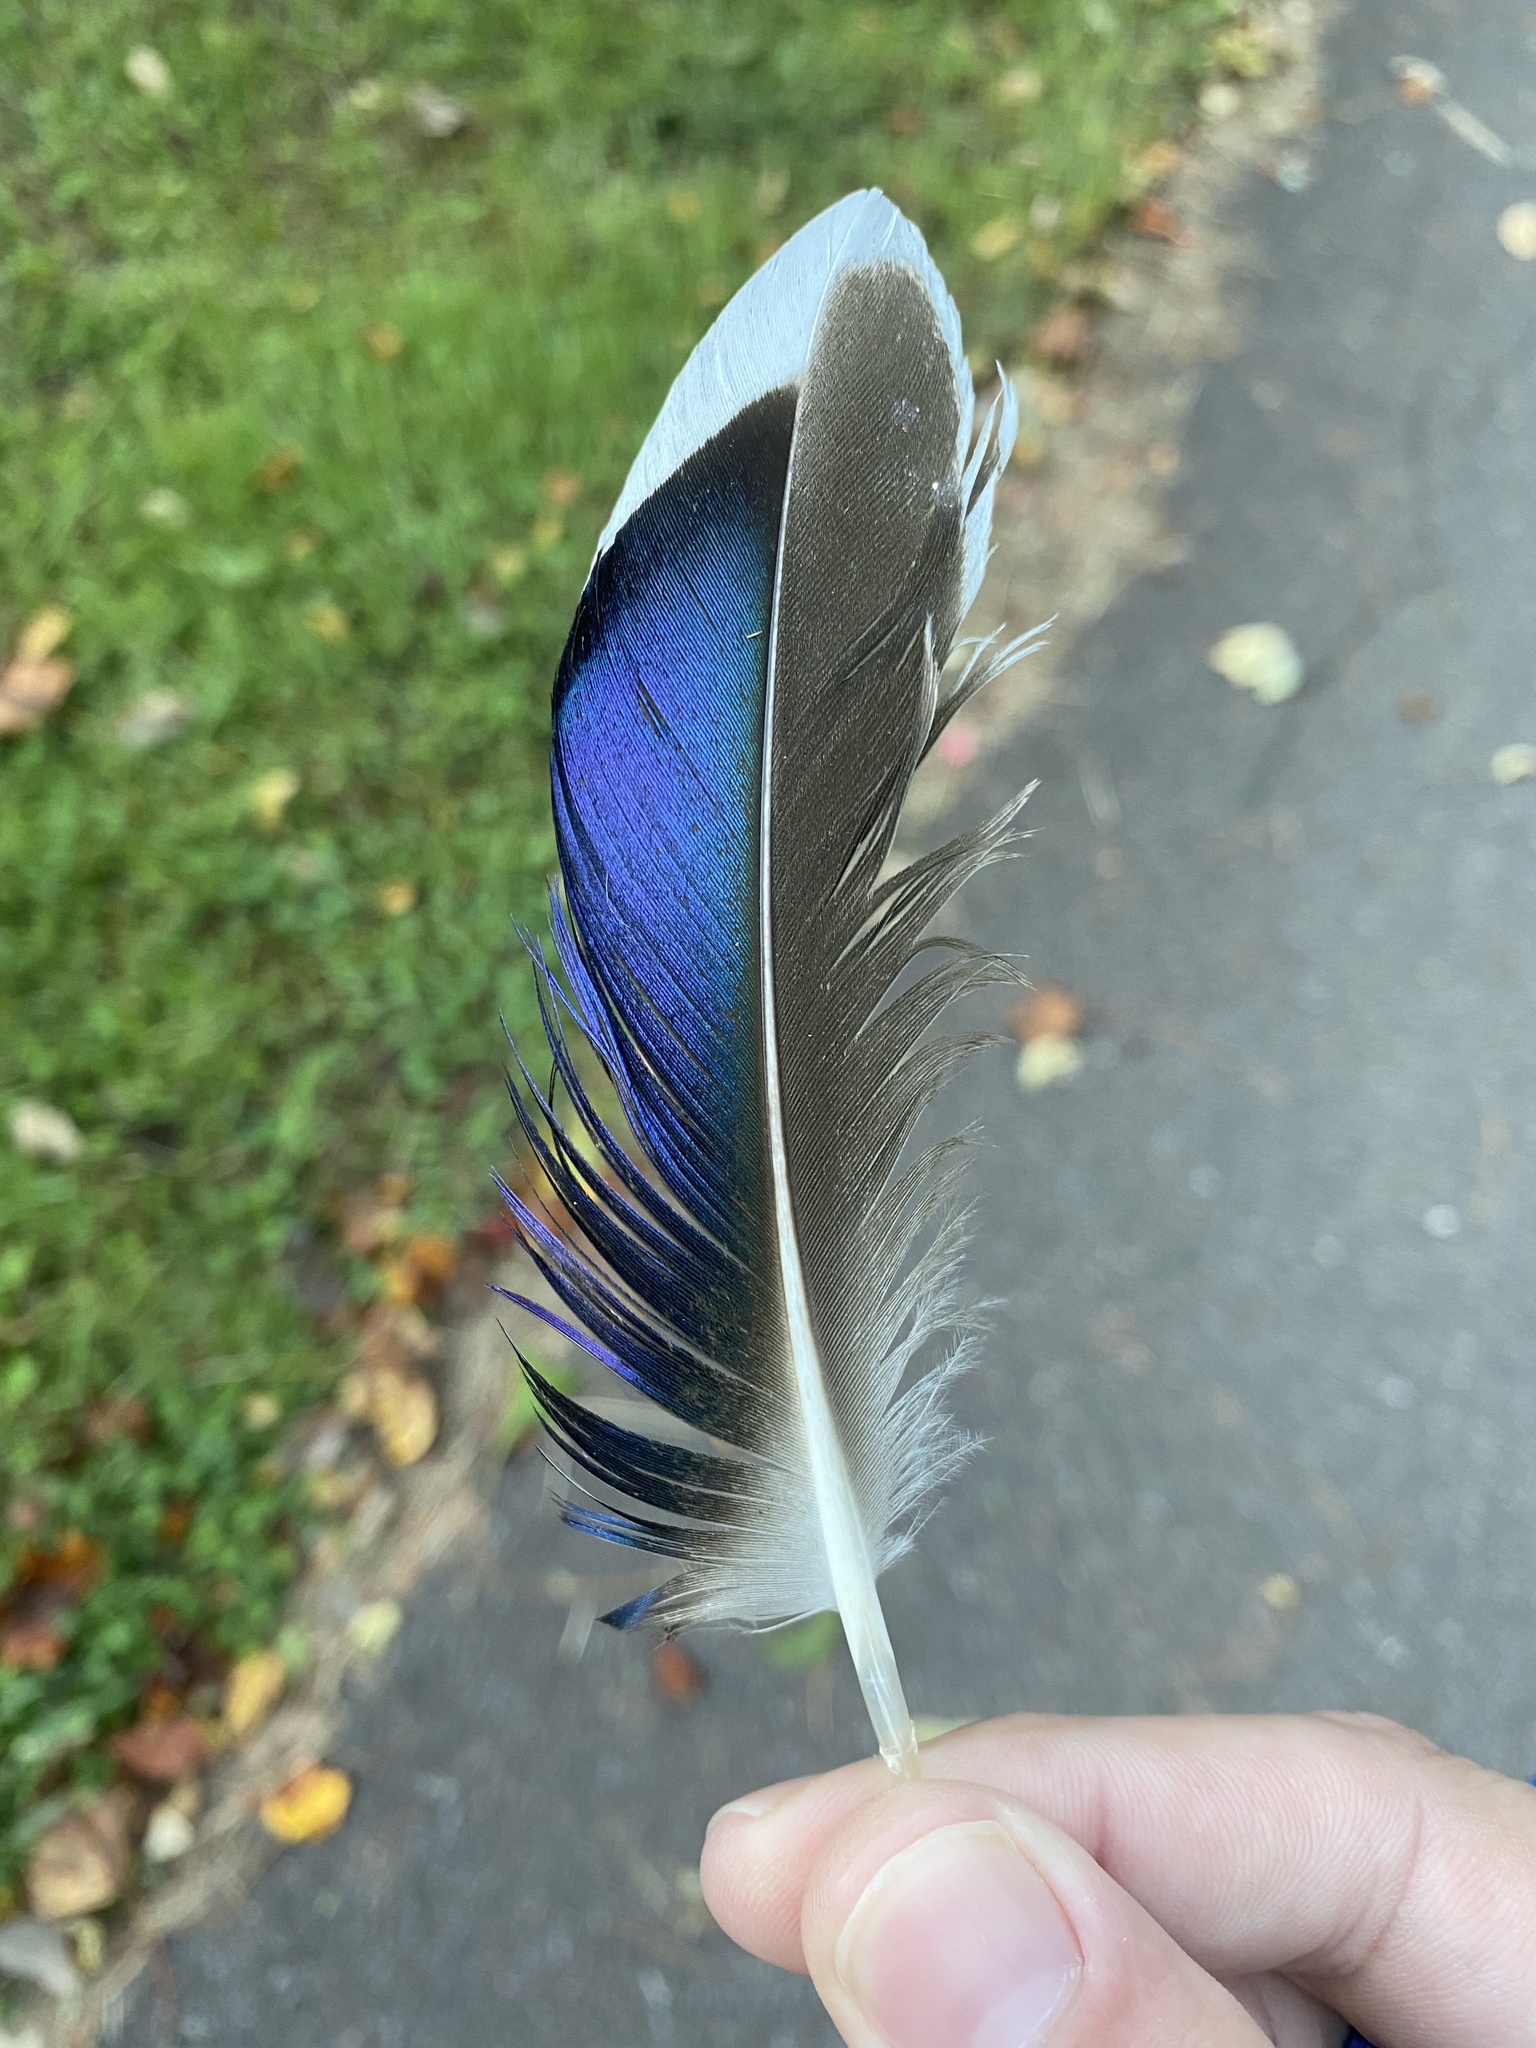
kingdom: Animalia
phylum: Chordata
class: Aves
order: Anseriformes
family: Anatidae
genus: Anas
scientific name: Anas platyrhynchos
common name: Mallard
